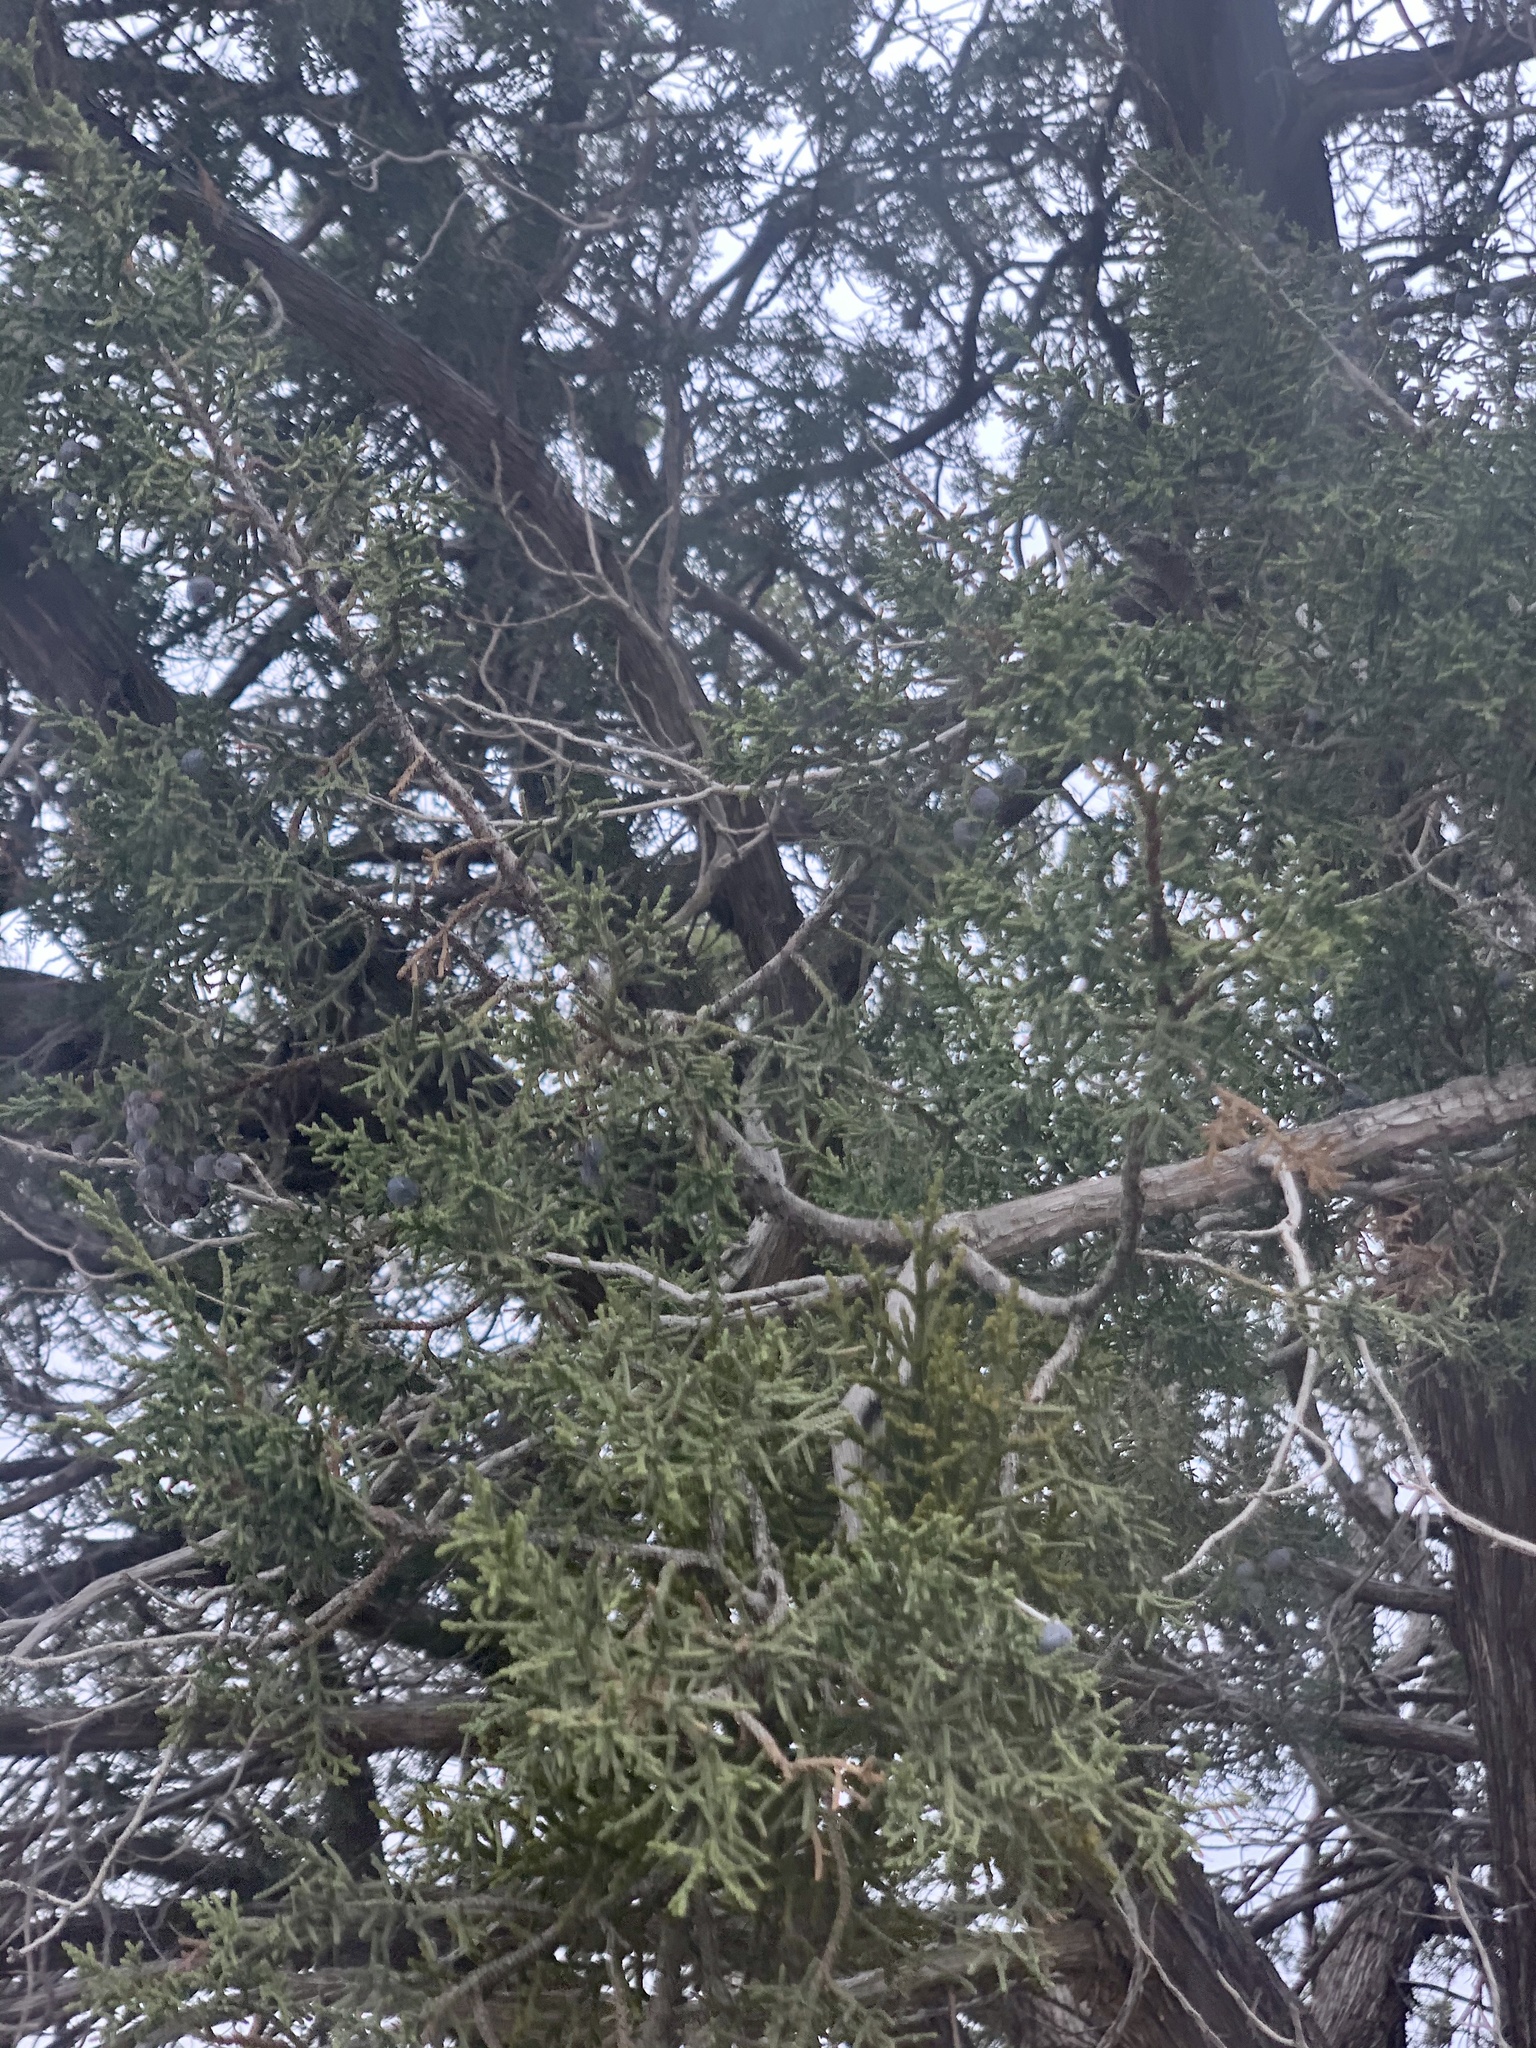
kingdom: Plantae
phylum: Tracheophyta
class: Pinopsida
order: Pinales
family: Cupressaceae
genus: Juniperus
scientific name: Juniperus monosperma
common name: One-seed juniper
